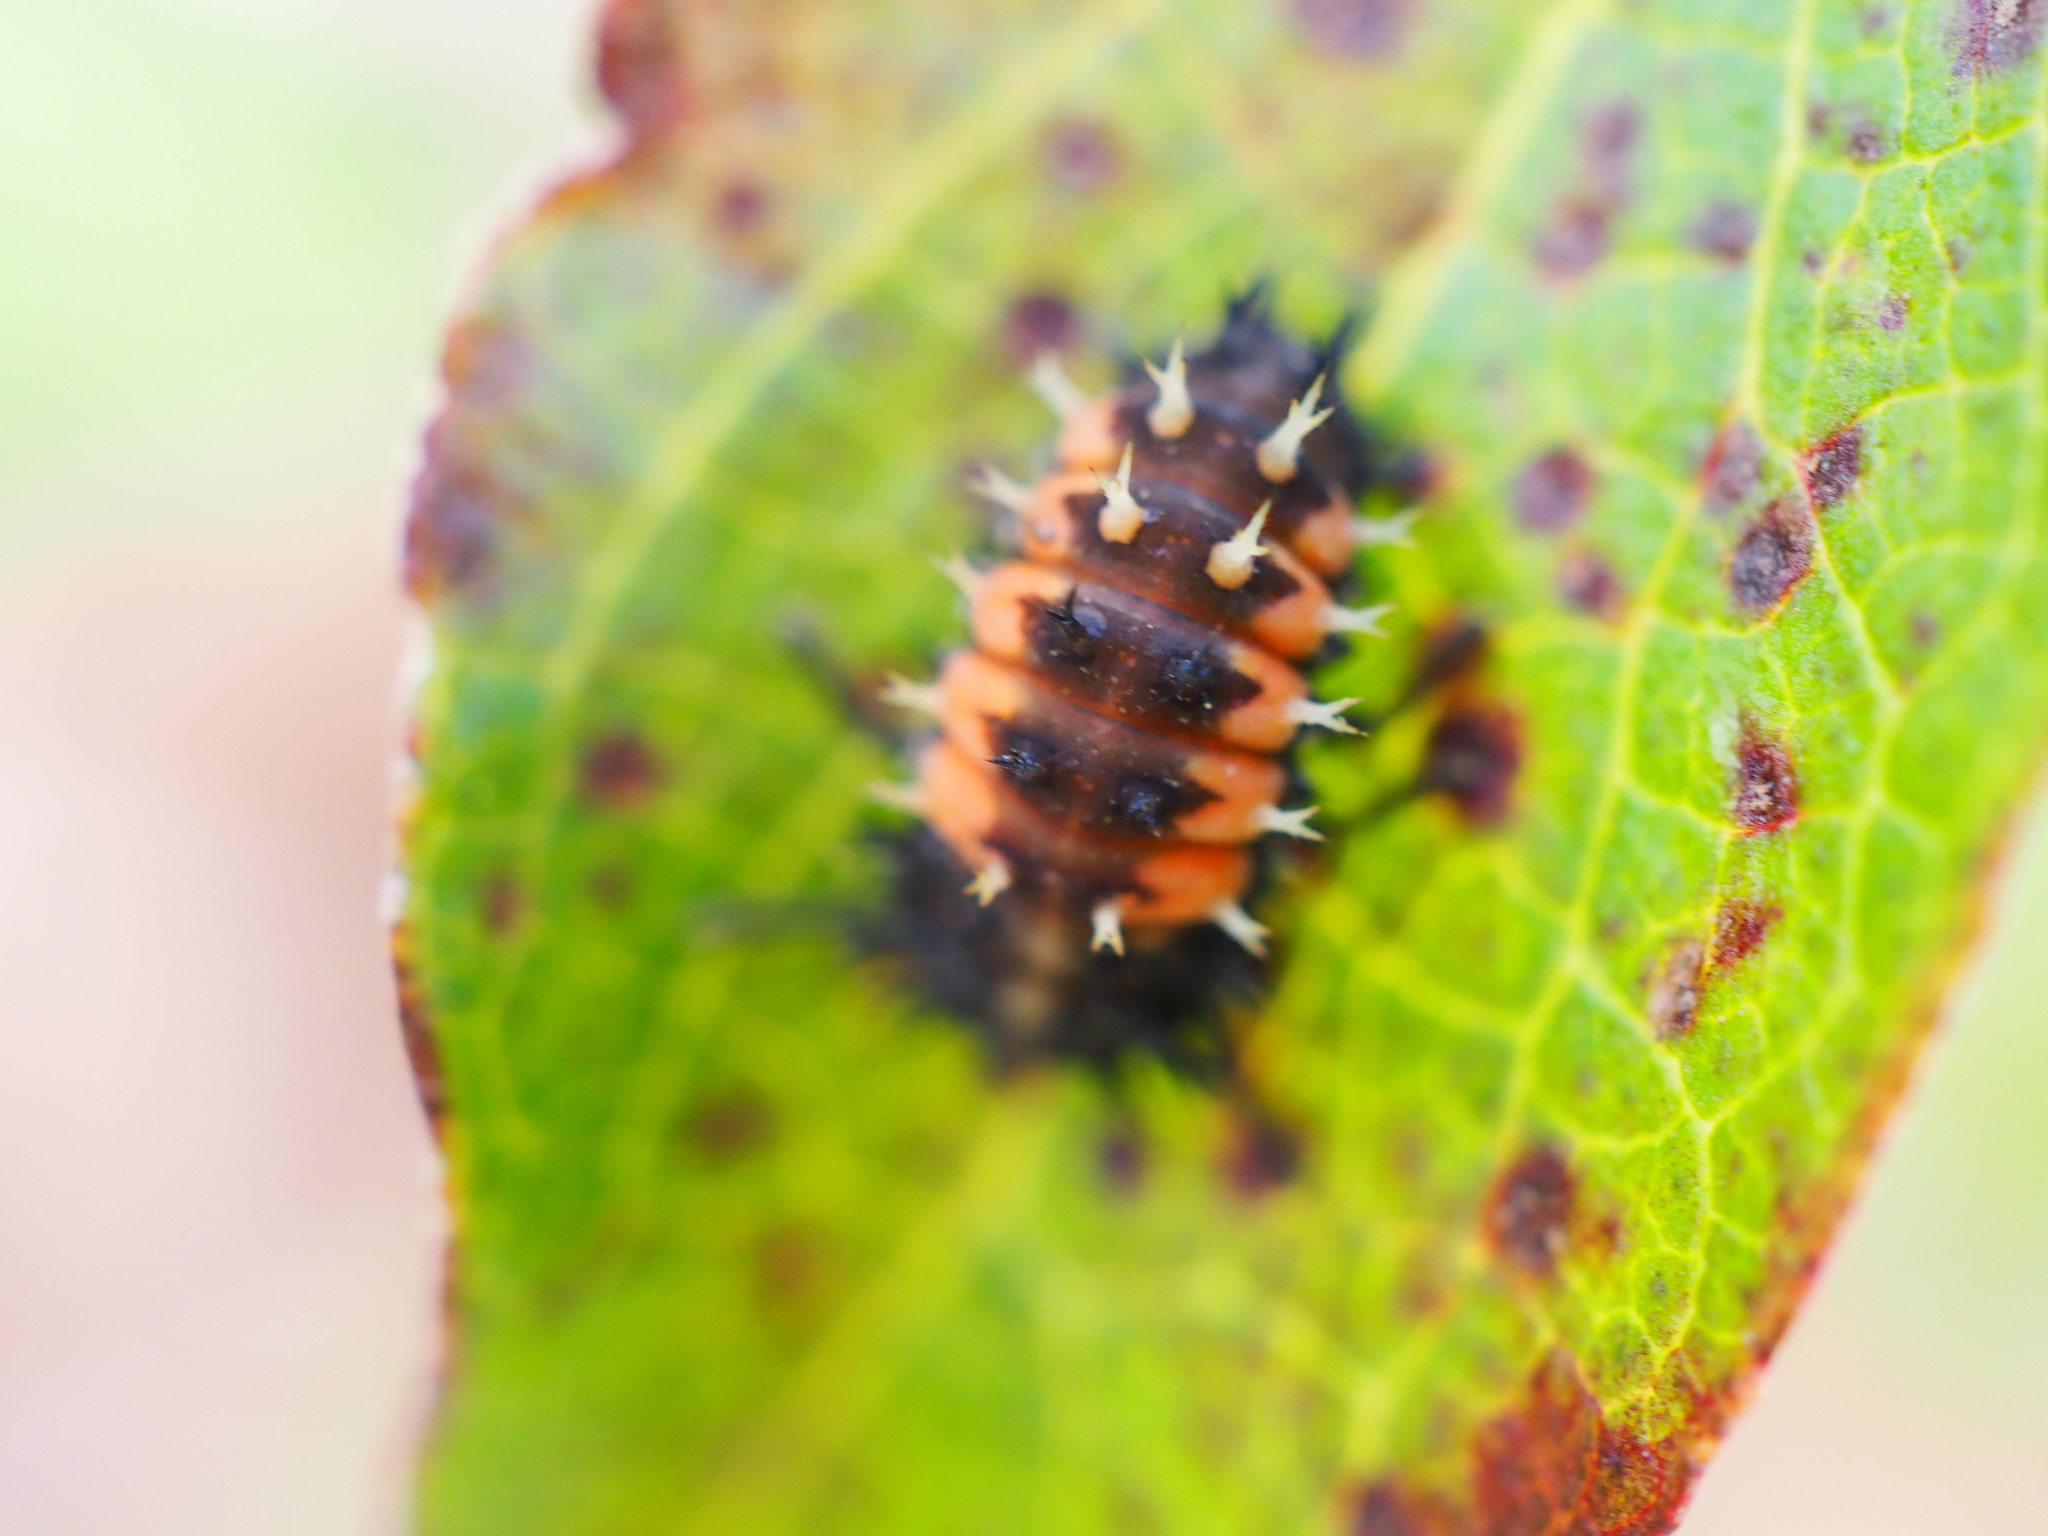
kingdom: Animalia
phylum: Arthropoda
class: Insecta
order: Coleoptera
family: Coccinellidae
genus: Harmonia
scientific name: Harmonia axyridis
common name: Harlequin ladybird
